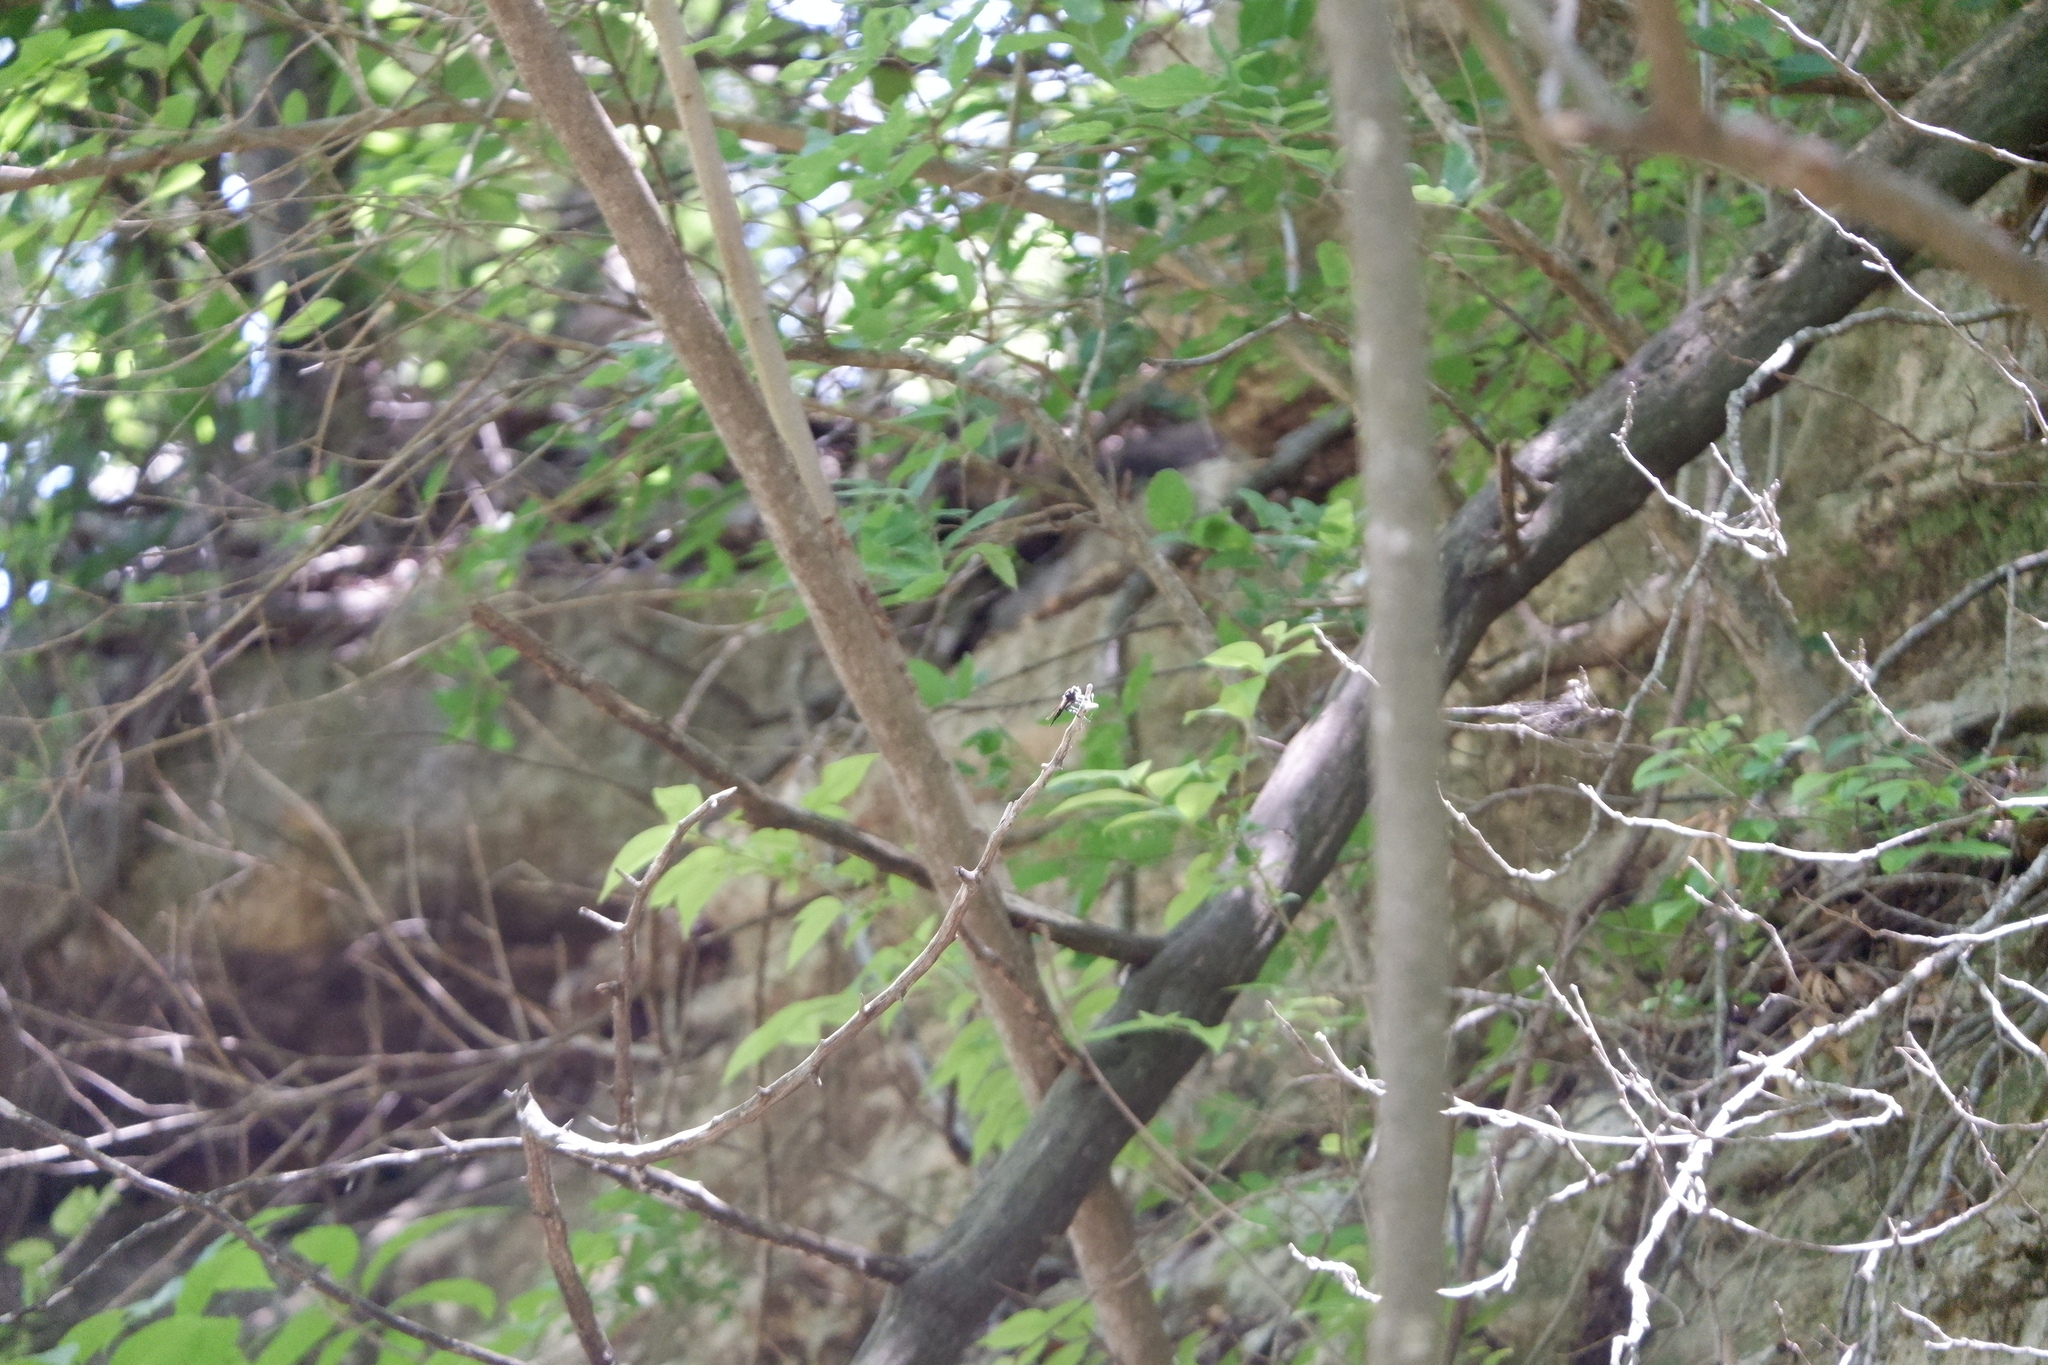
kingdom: Animalia
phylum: Arthropoda
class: Insecta
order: Diptera
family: Asilidae
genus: Promachus
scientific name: Promachus painteri
